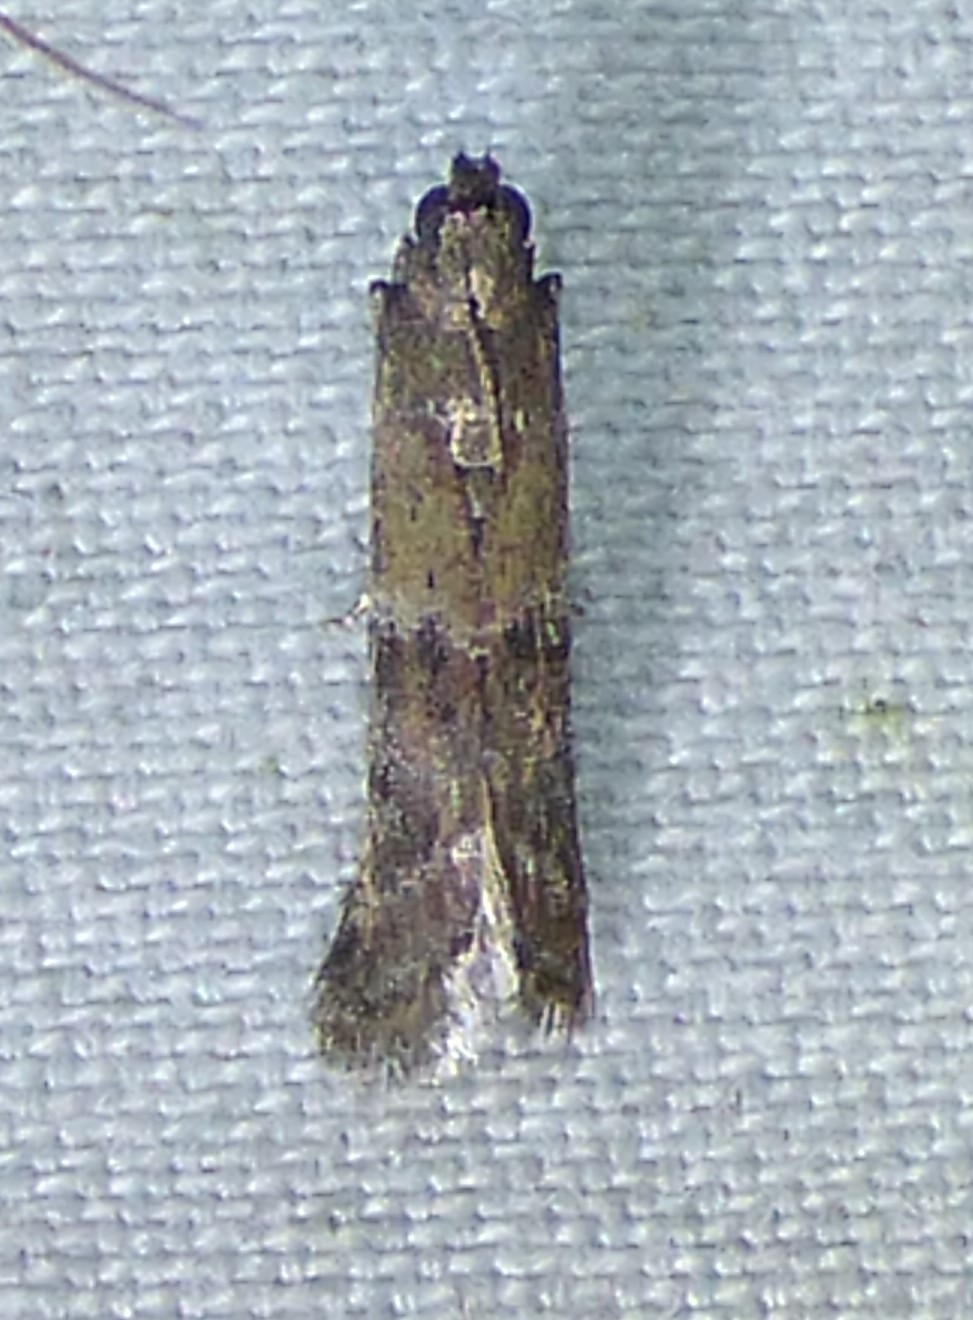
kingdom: Animalia
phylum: Arthropoda
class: Insecta
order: Lepidoptera
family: Pyralidae
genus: Ephestiodes
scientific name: Ephestiodes infimella
